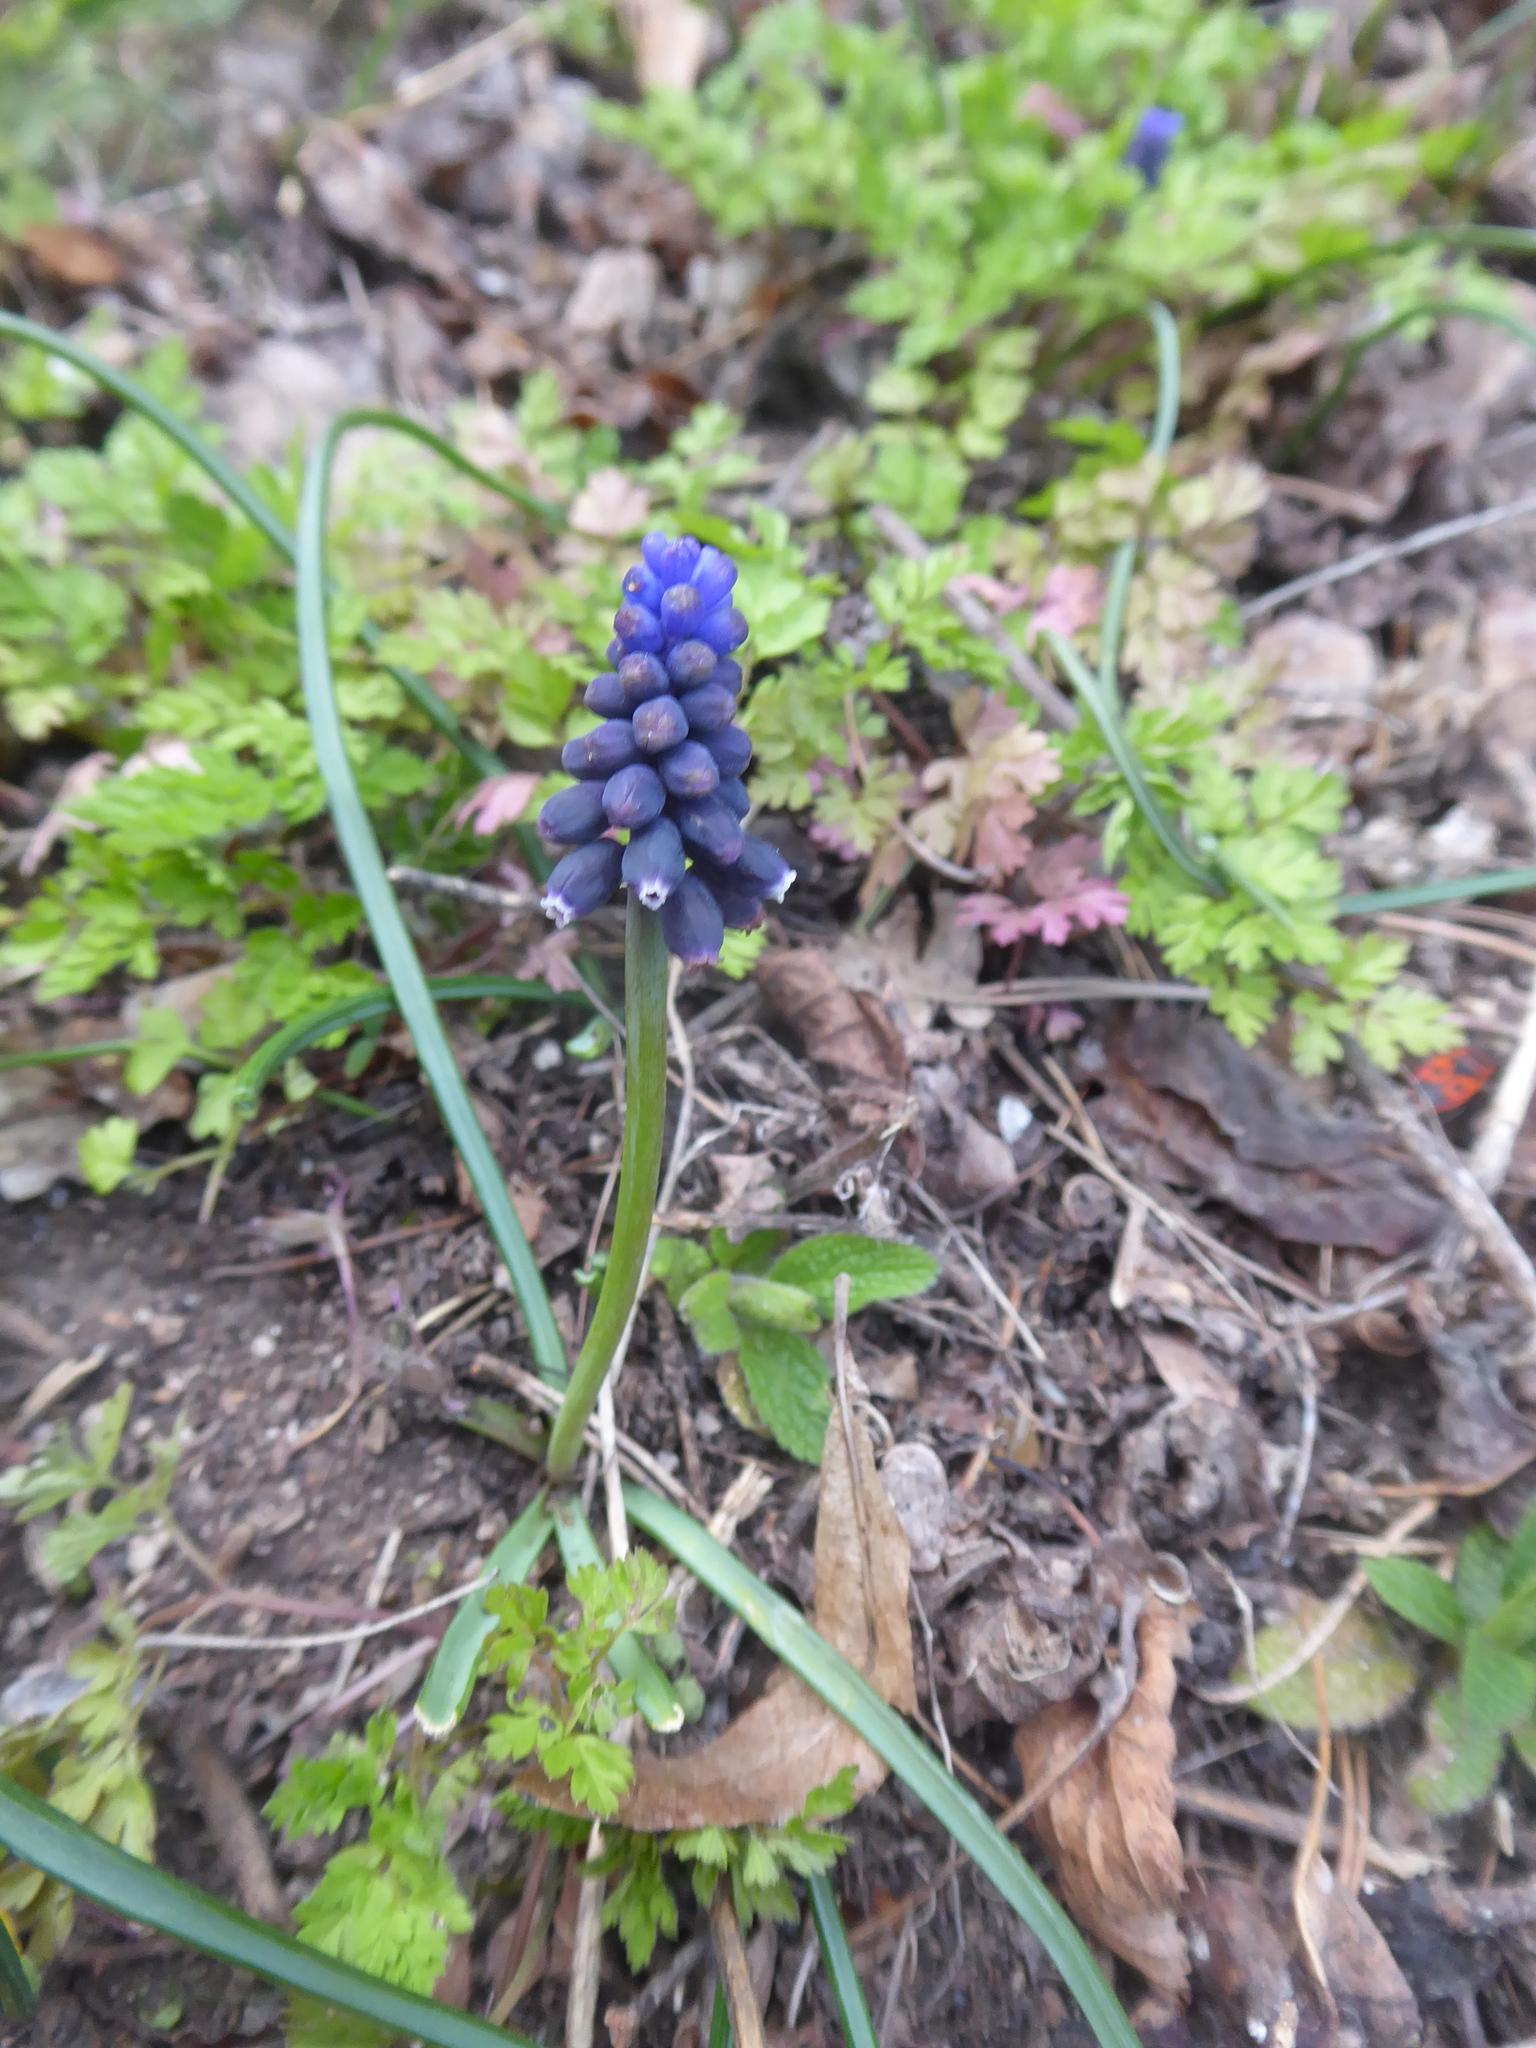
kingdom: Plantae
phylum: Tracheophyta
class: Liliopsida
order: Asparagales
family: Asparagaceae
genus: Muscari
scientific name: Muscari neglectum
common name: Grape-hyacinth
